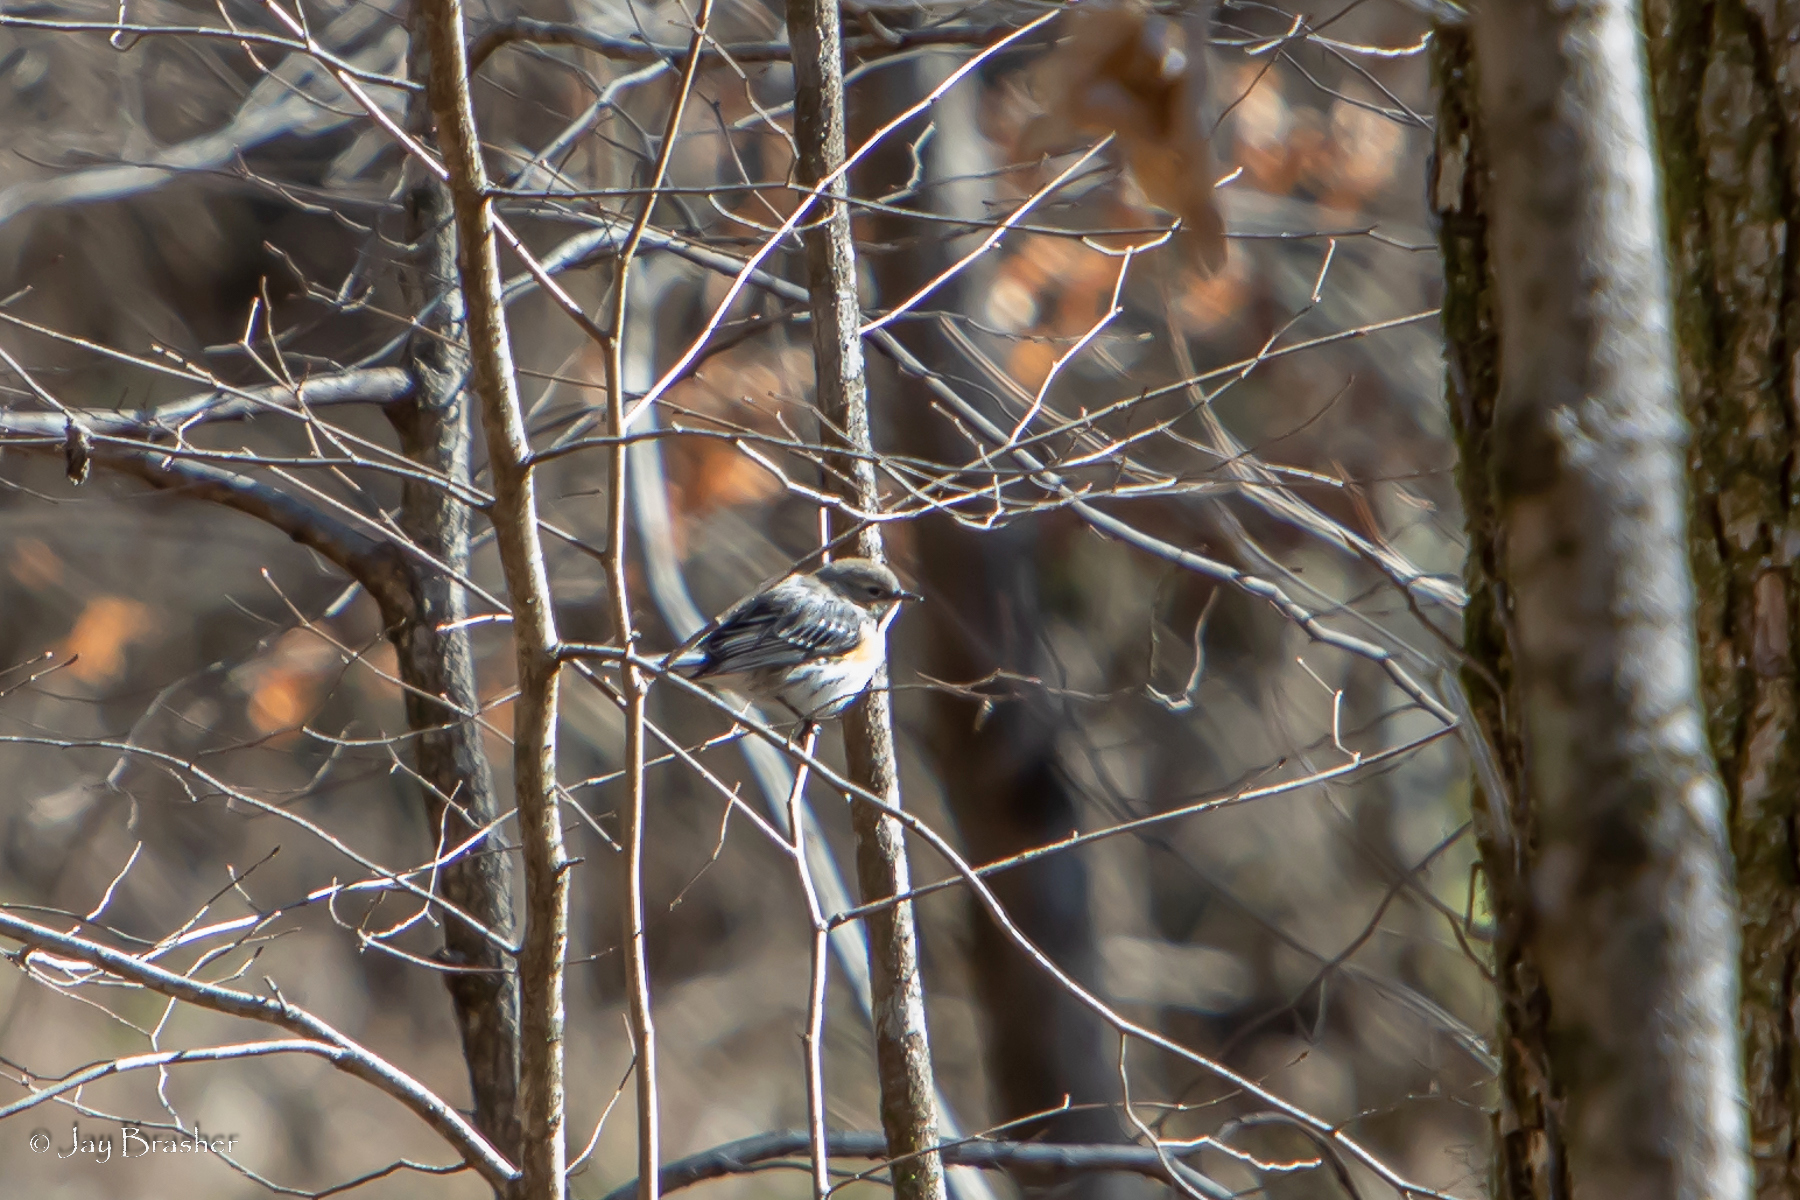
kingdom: Animalia
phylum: Chordata
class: Aves
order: Passeriformes
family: Parulidae
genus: Setophaga
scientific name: Setophaga coronata
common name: Myrtle warbler
